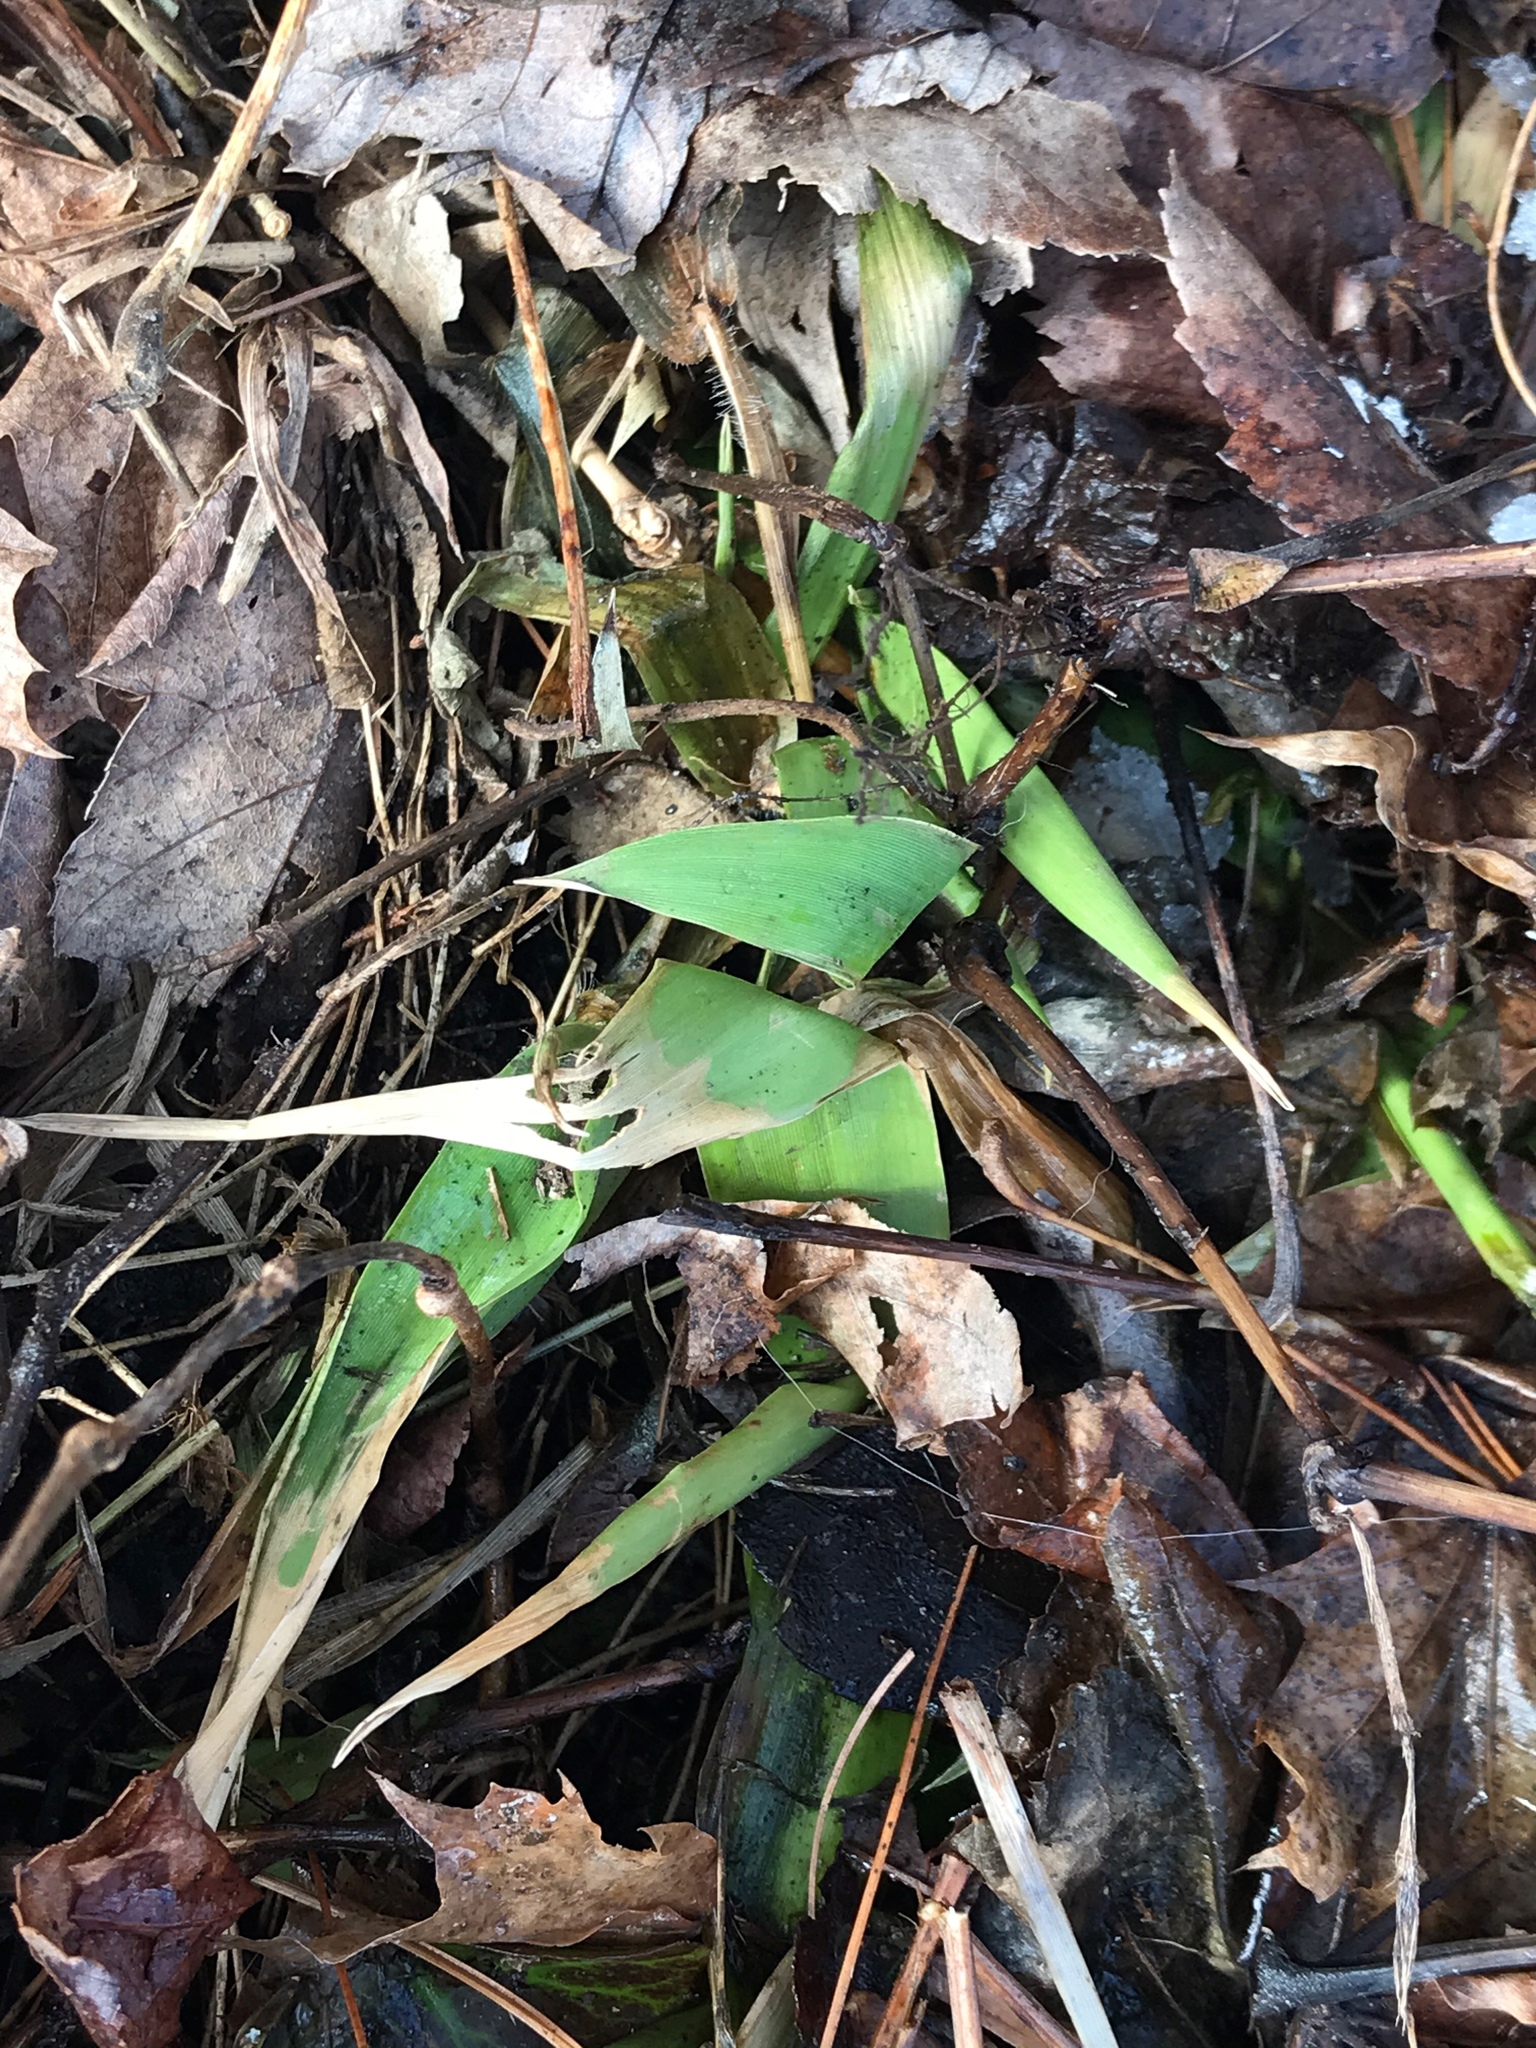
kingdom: Plantae
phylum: Tracheophyta
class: Liliopsida
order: Poales
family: Poaceae
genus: Dichanthelium
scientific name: Dichanthelium clandestinum
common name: Deer-tongue grass
